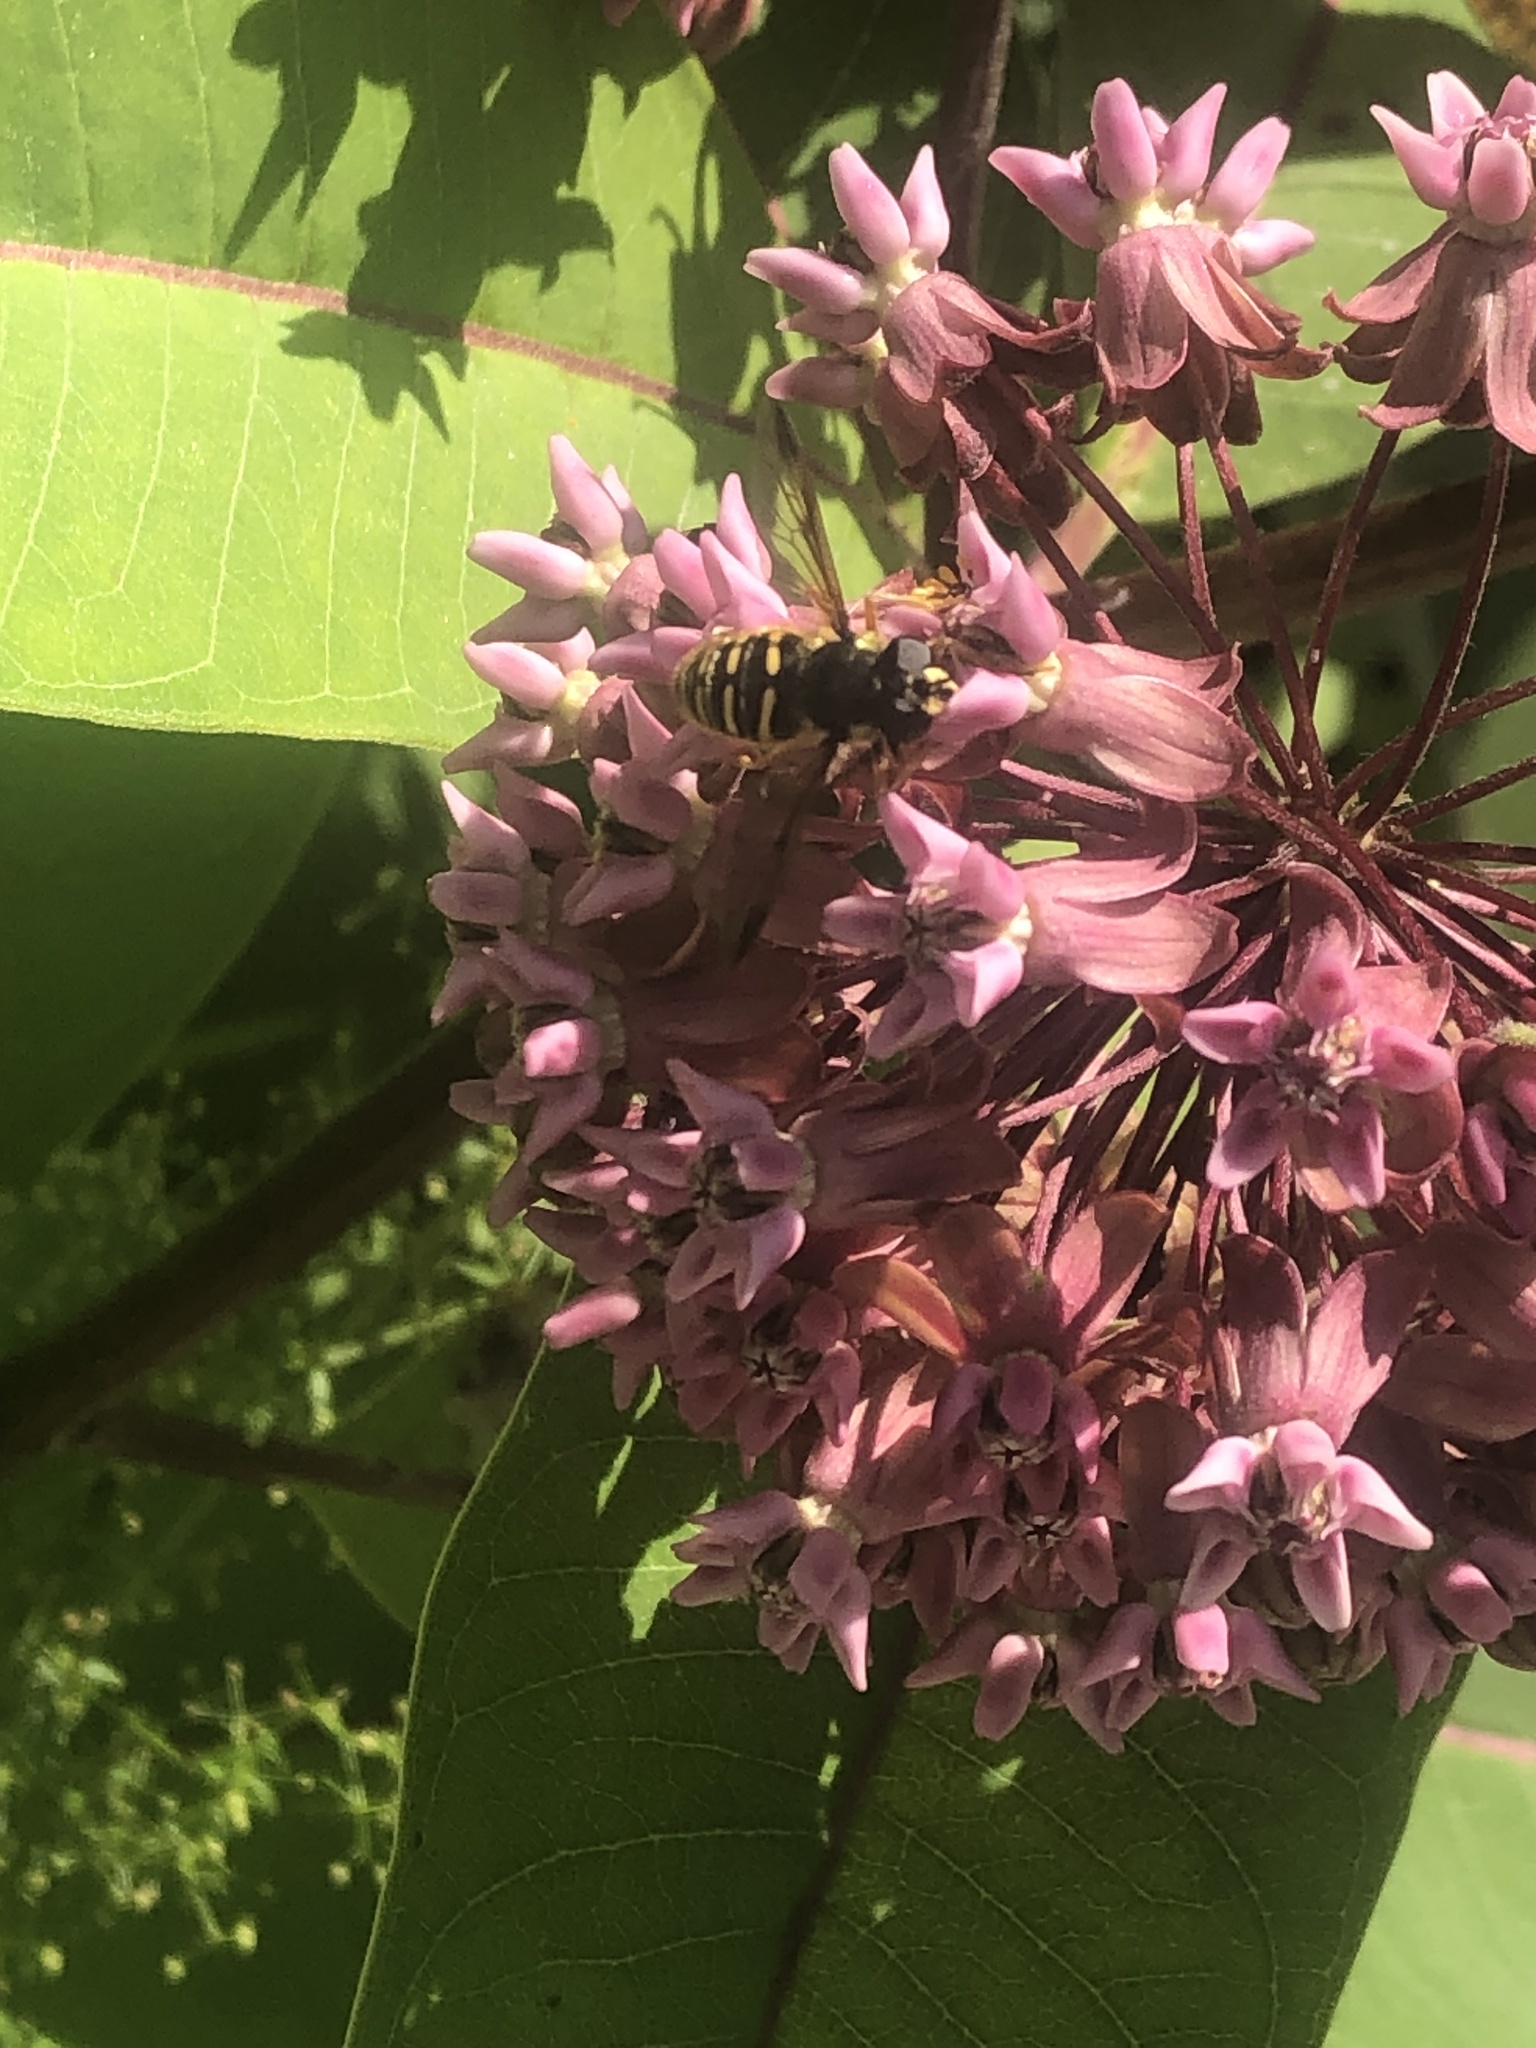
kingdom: Animalia
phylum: Arthropoda
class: Insecta
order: Diptera
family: Syrphidae
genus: Sericomyia
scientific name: Sericomyia chrysotoxoides
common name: Oblique-banded pond fly
